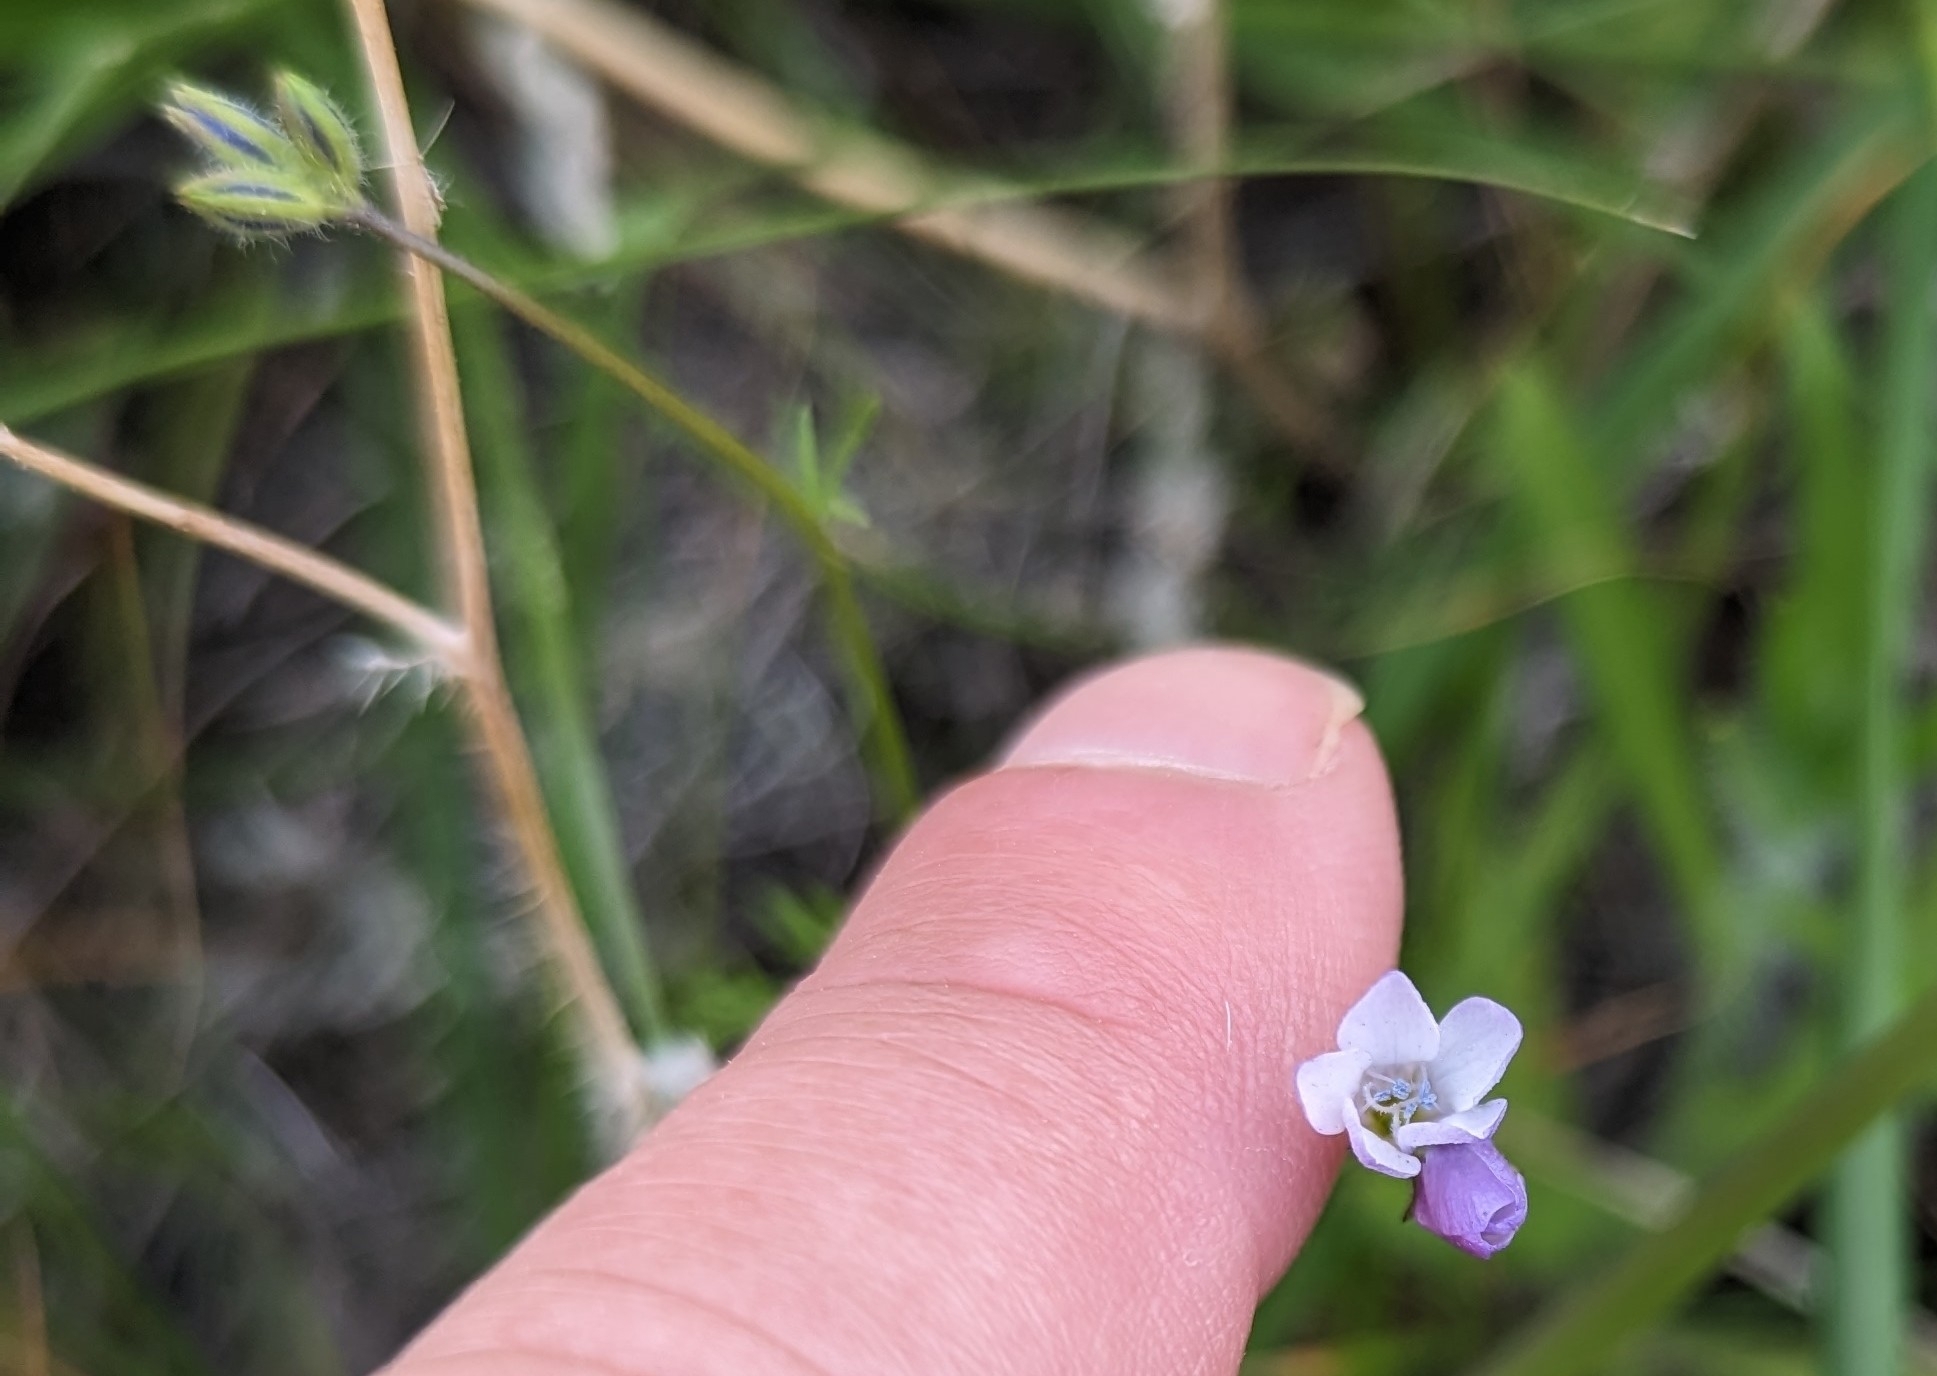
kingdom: Plantae
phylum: Tracheophyta
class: Magnoliopsida
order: Ericales
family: Polemoniaceae
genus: Gilia
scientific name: Gilia angelensis
